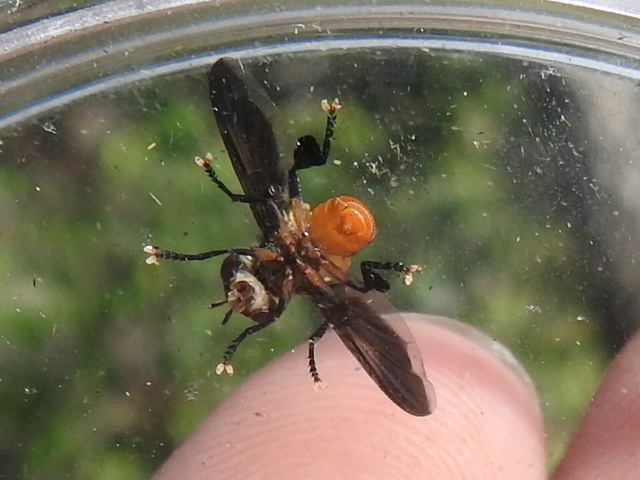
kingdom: Animalia
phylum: Arthropoda
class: Insecta
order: Diptera
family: Tachinidae
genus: Trichopoda
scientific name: Trichopoda pennipes
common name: Tachinid fly
